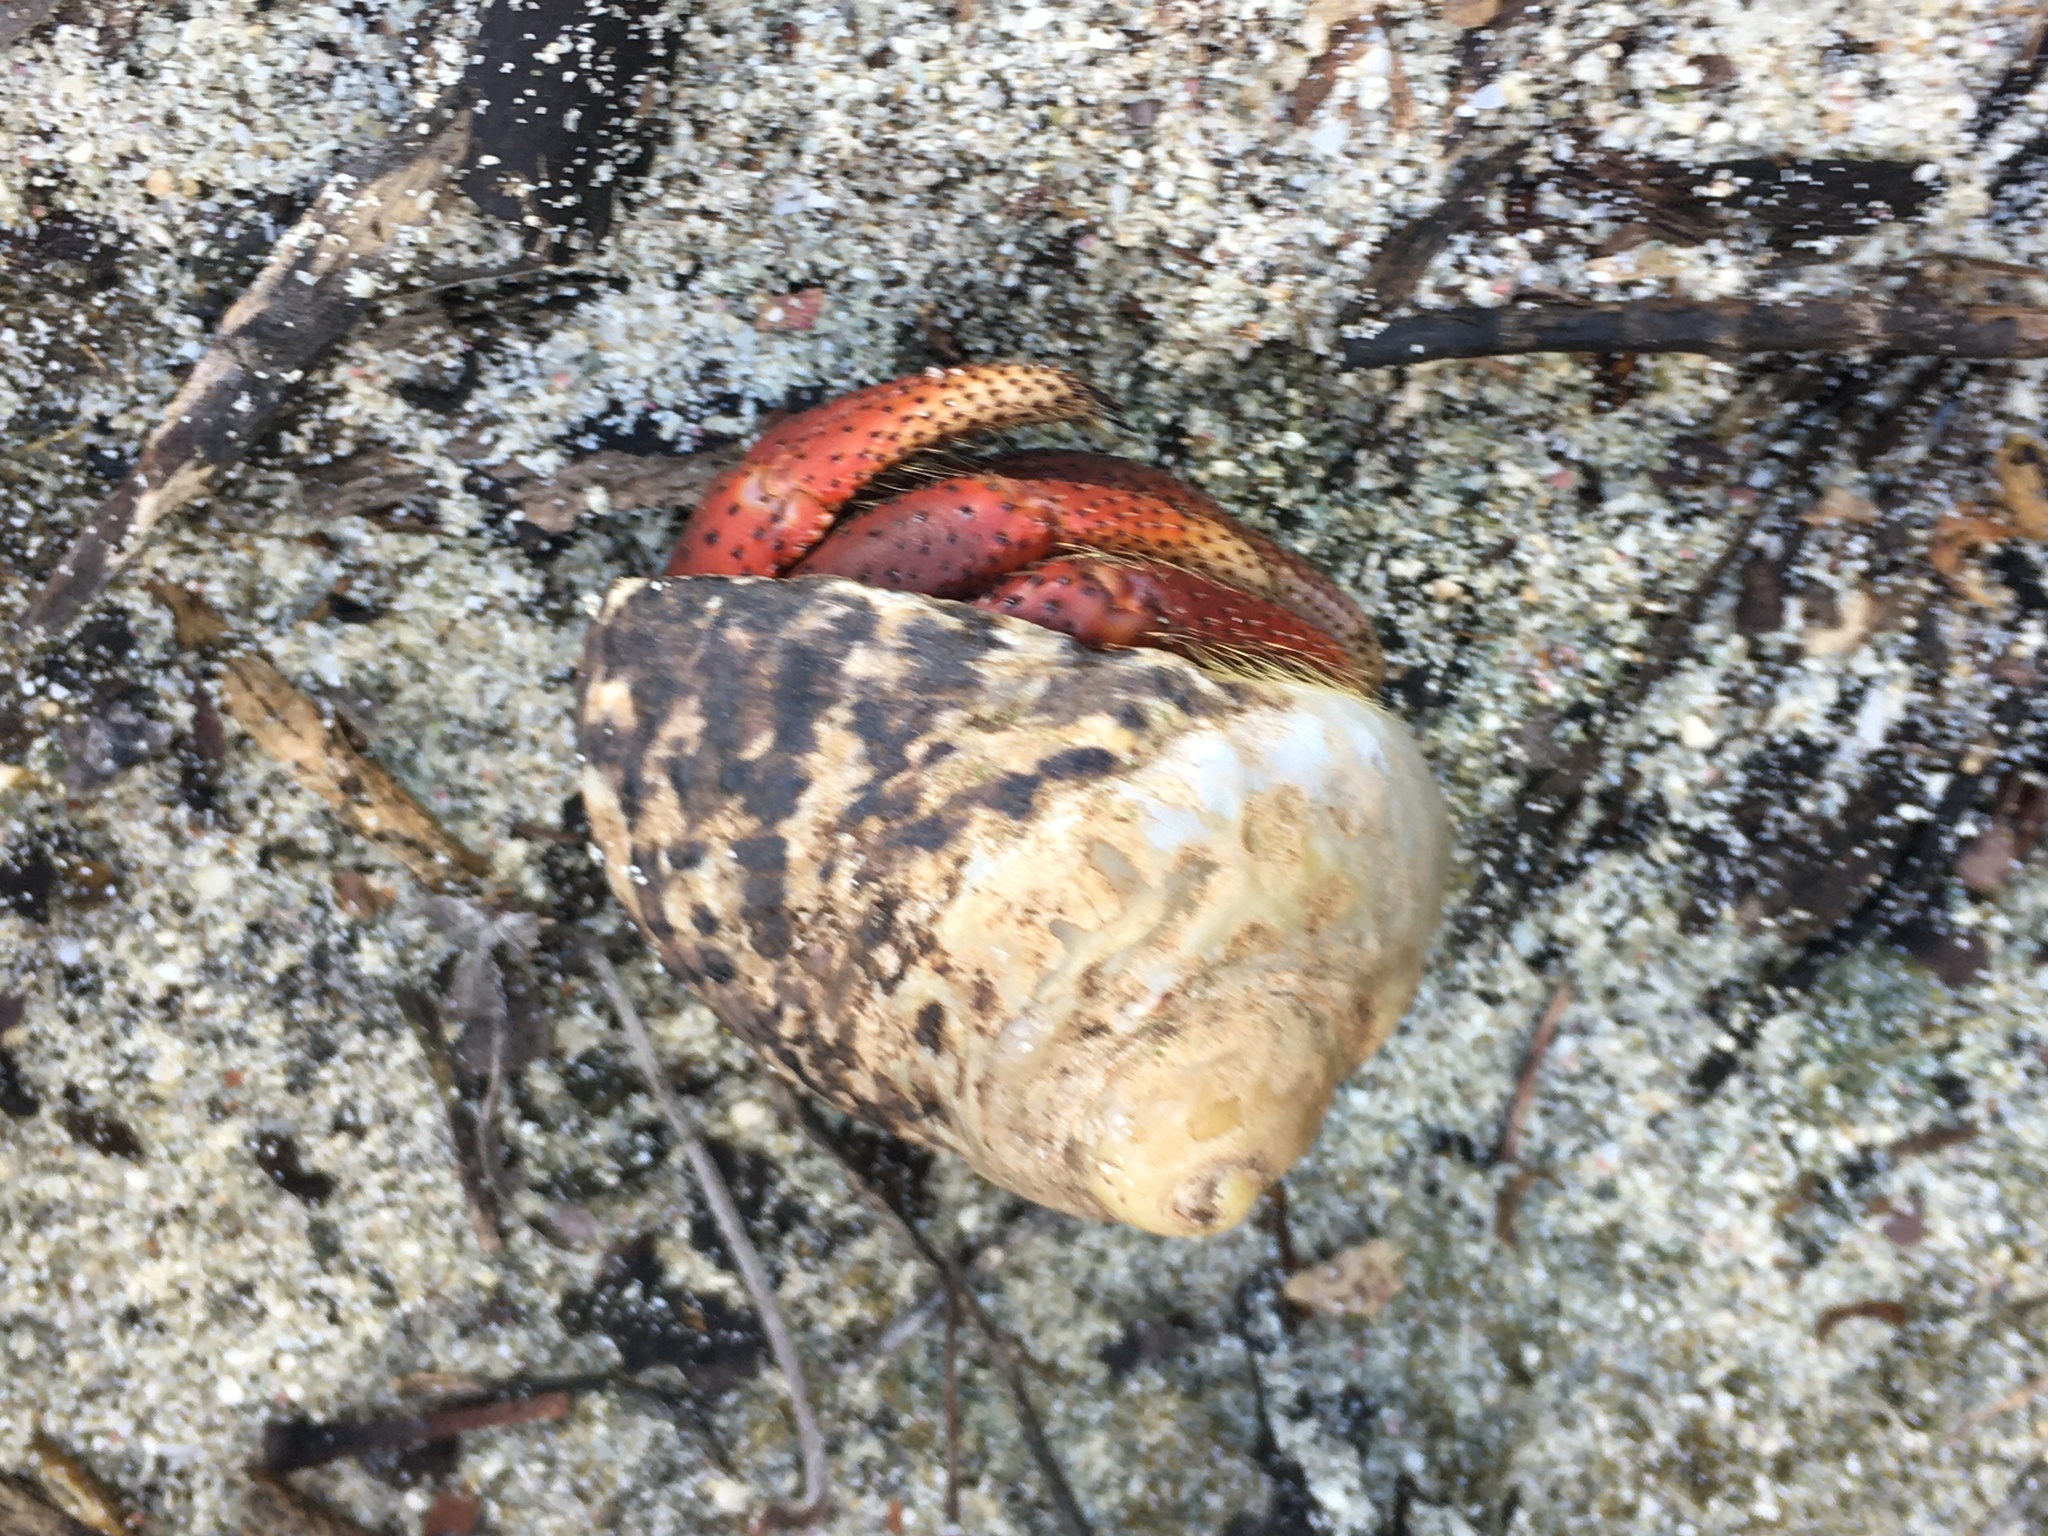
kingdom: Animalia
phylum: Arthropoda
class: Malacostraca
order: Decapoda
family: Coenobitidae
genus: Coenobita
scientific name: Coenobita clypeatus
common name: Caribbean hermit crab
